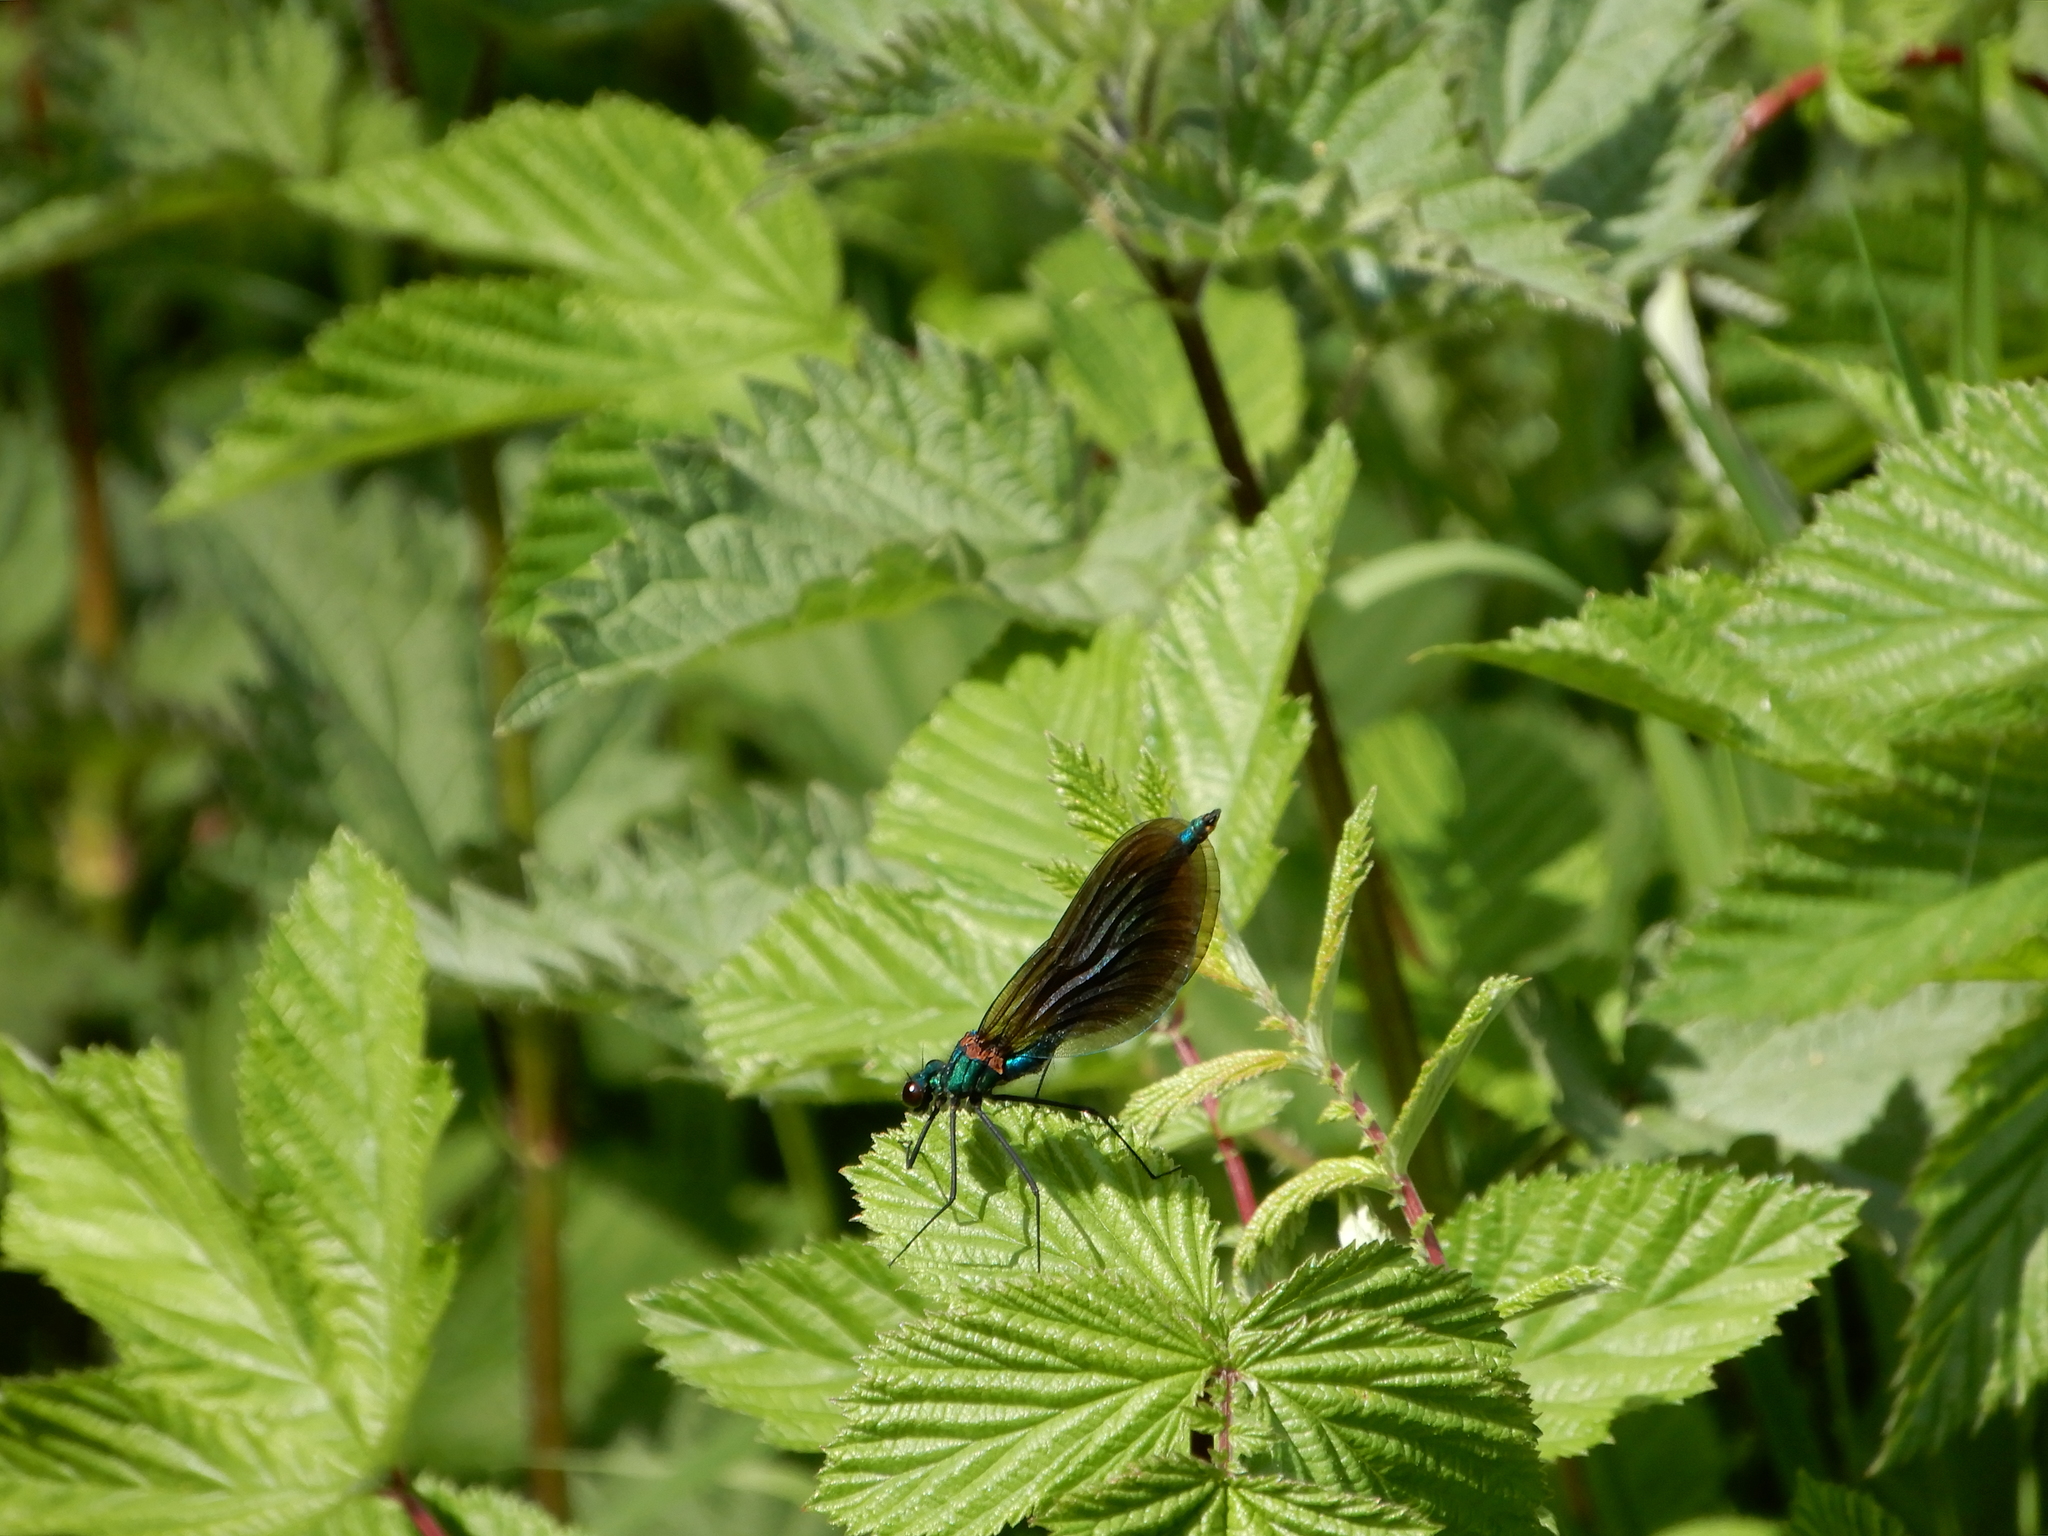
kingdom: Animalia
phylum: Arthropoda
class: Insecta
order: Odonata
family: Calopterygidae
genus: Calopteryx
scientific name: Calopteryx virgo
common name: Beautiful demoiselle
